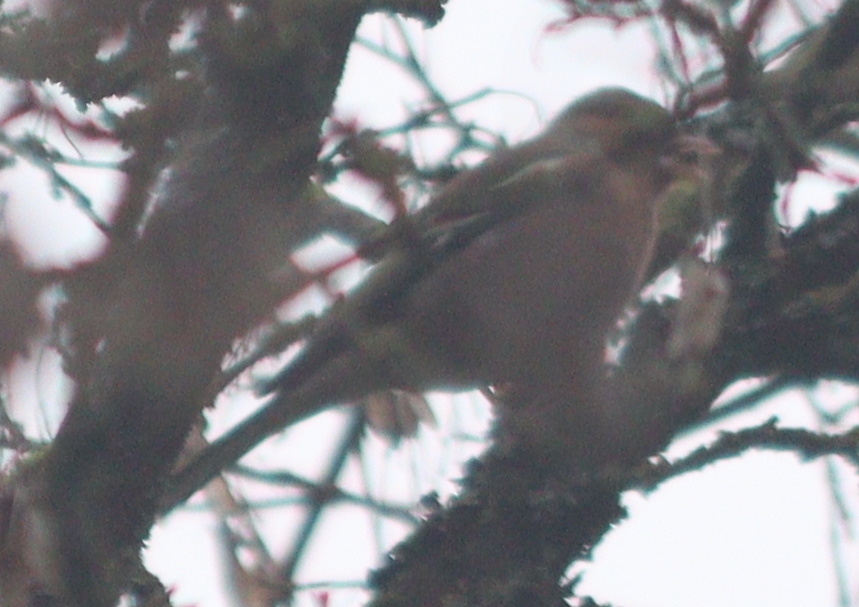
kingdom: Animalia
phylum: Chordata
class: Aves
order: Passeriformes
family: Fringillidae
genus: Fringilla
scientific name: Fringilla coelebs
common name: Common chaffinch
